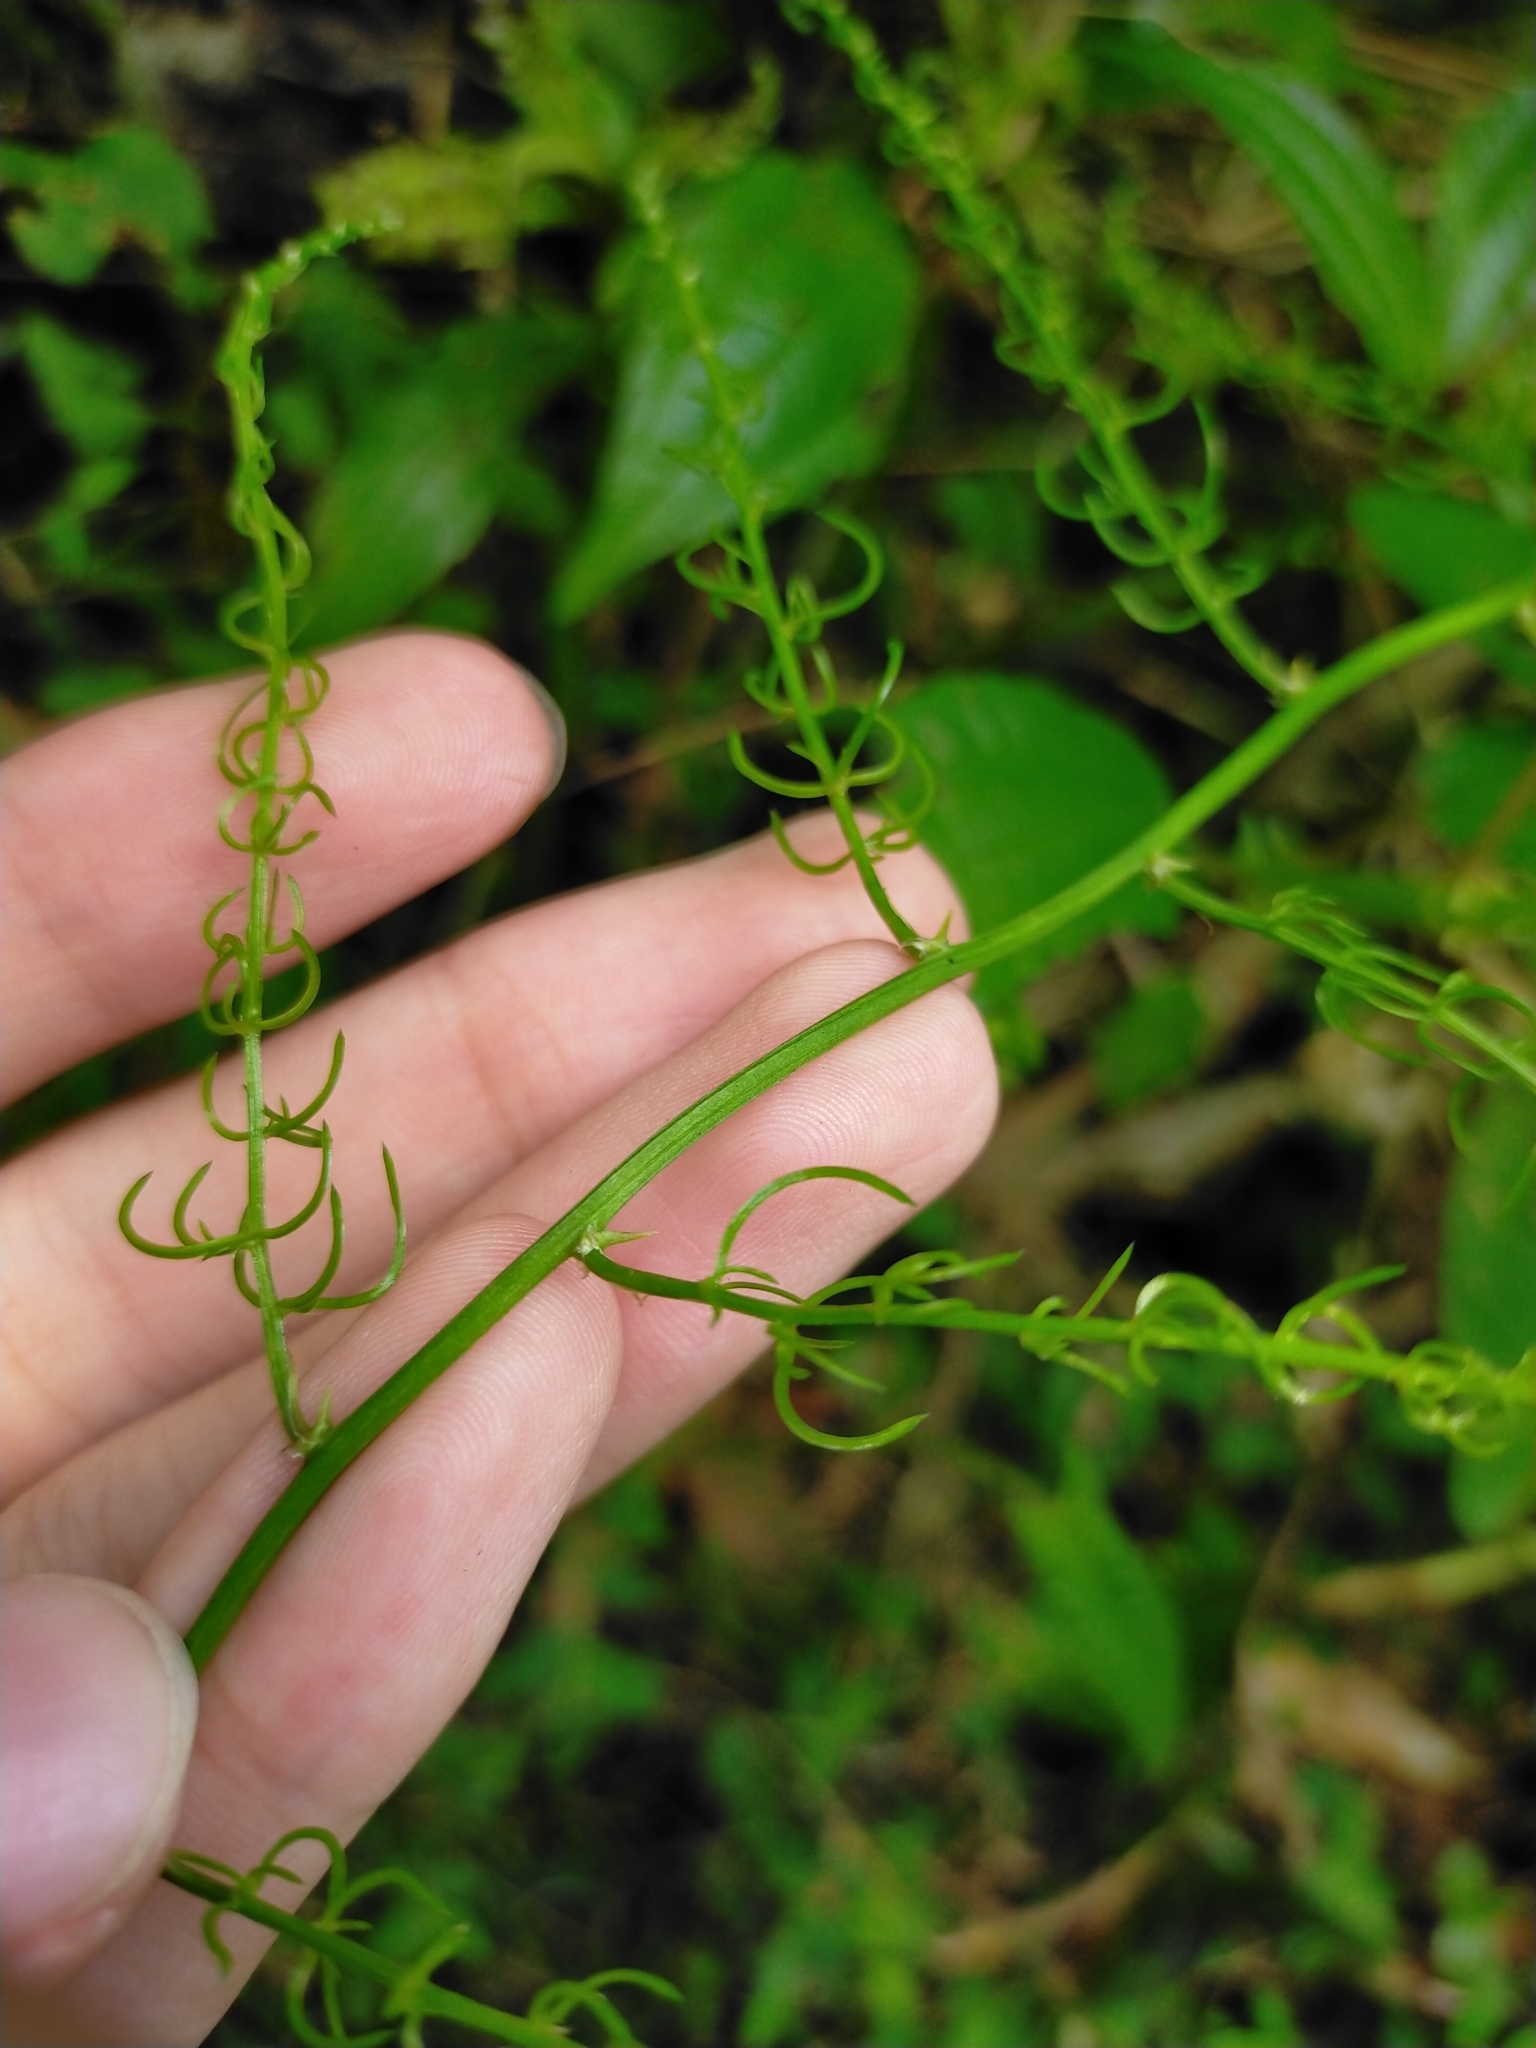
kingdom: Plantae
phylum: Tracheophyta
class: Liliopsida
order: Asparagales
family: Asparagaceae
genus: Asparagus
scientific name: Asparagus cochinchinensis
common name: Chinese asparagus
